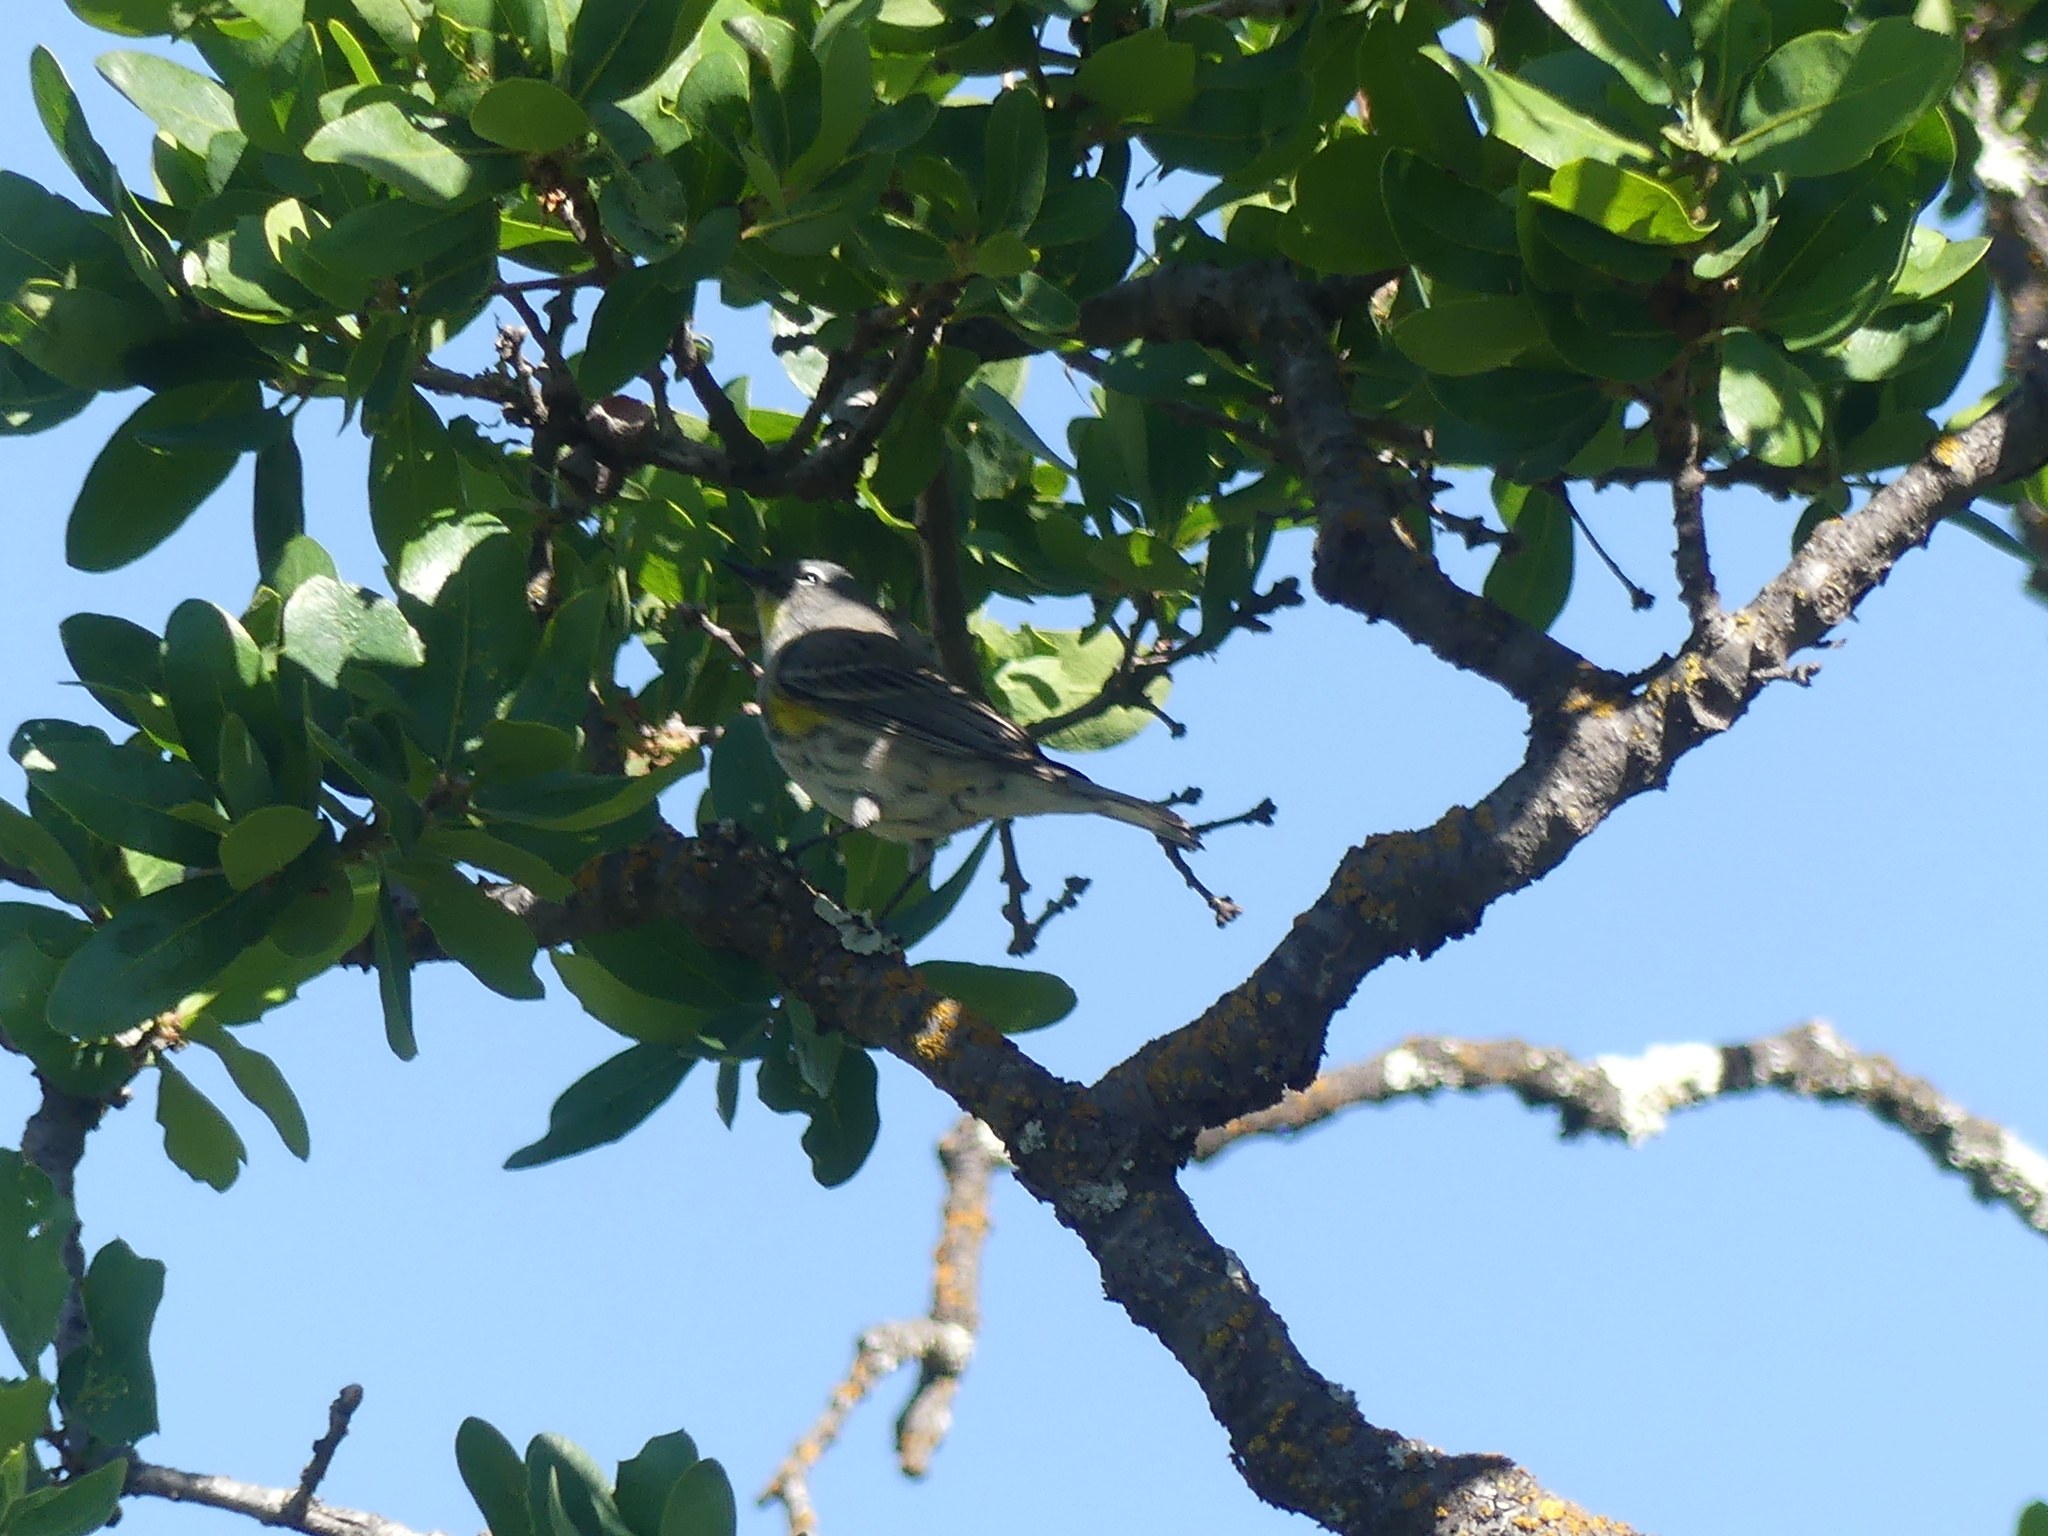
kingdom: Animalia
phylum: Chordata
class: Aves
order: Passeriformes
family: Parulidae
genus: Setophaga
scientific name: Setophaga coronata
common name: Myrtle warbler
